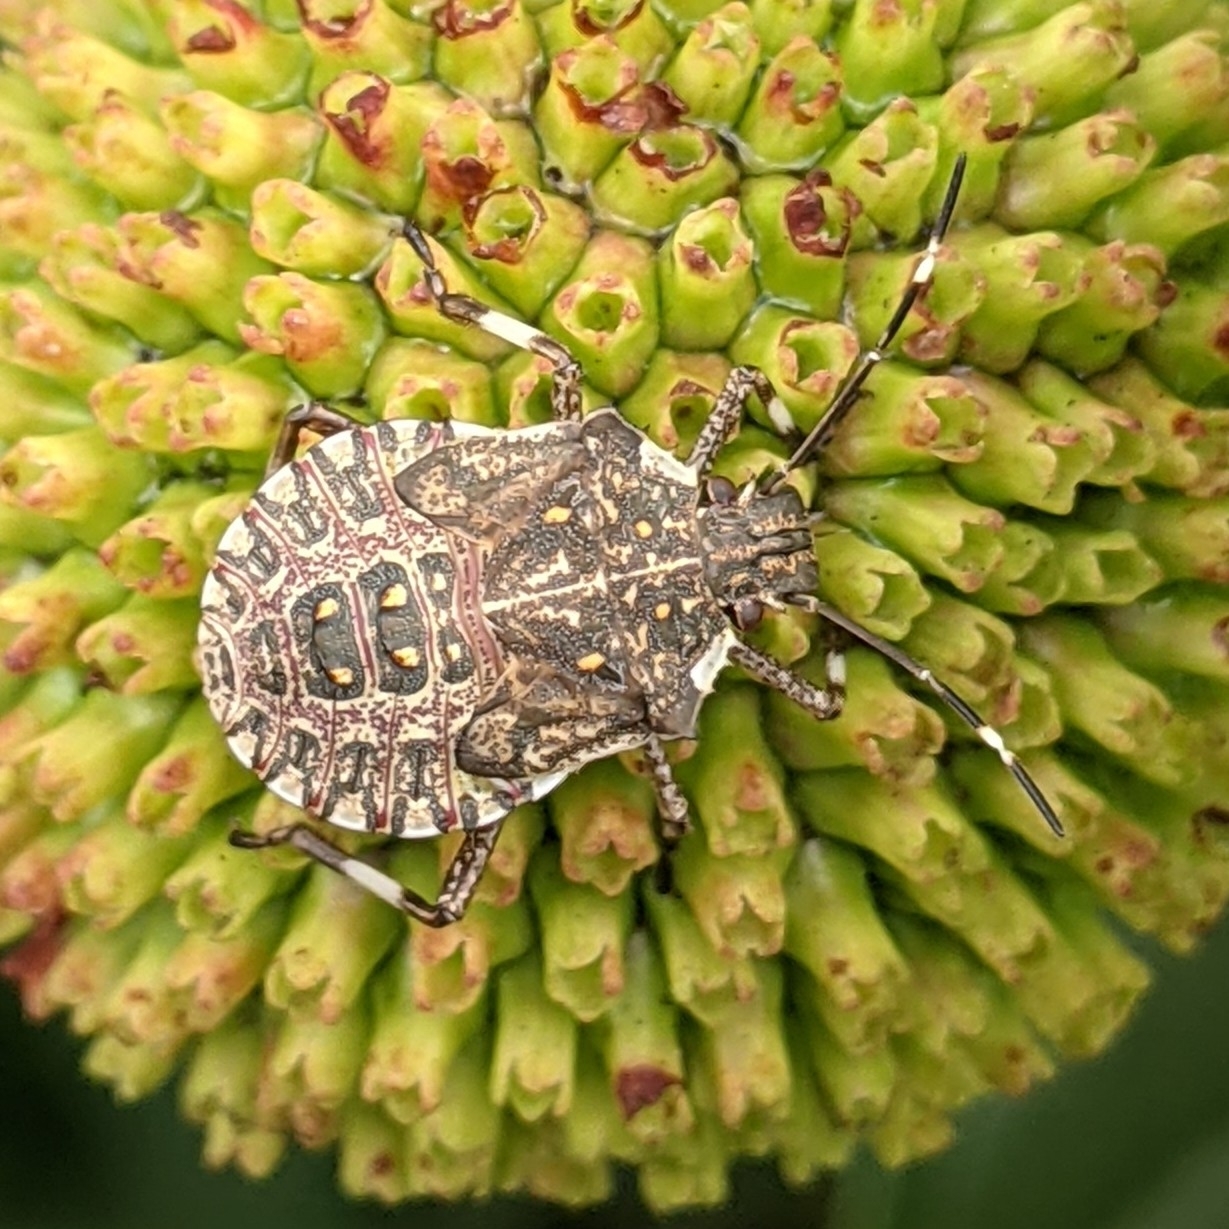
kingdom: Animalia
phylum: Arthropoda
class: Insecta
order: Hemiptera
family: Pentatomidae
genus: Halyomorpha
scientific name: Halyomorpha halys
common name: Brown marmorated stink bug
